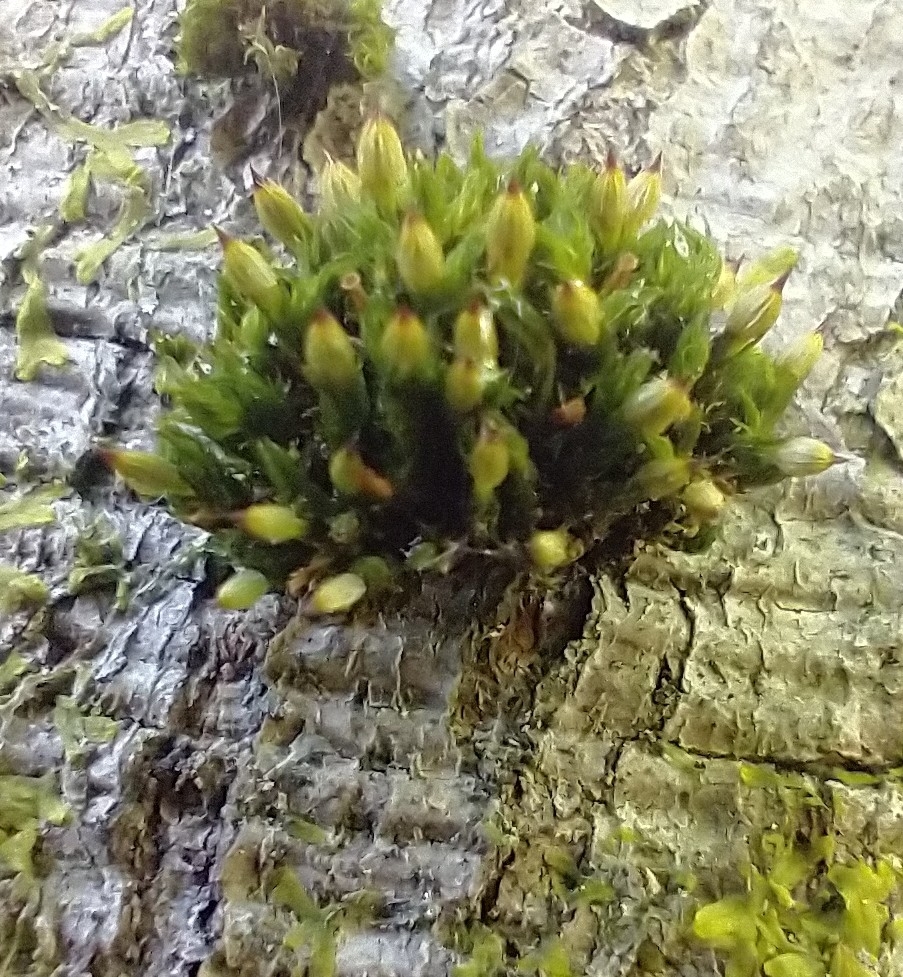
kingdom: Plantae
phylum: Bryophyta
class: Bryopsida
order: Orthotrichales
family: Orthotrichaceae
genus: Orthotrichum
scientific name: Orthotrichum stramineum
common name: Straw bristle-moss
